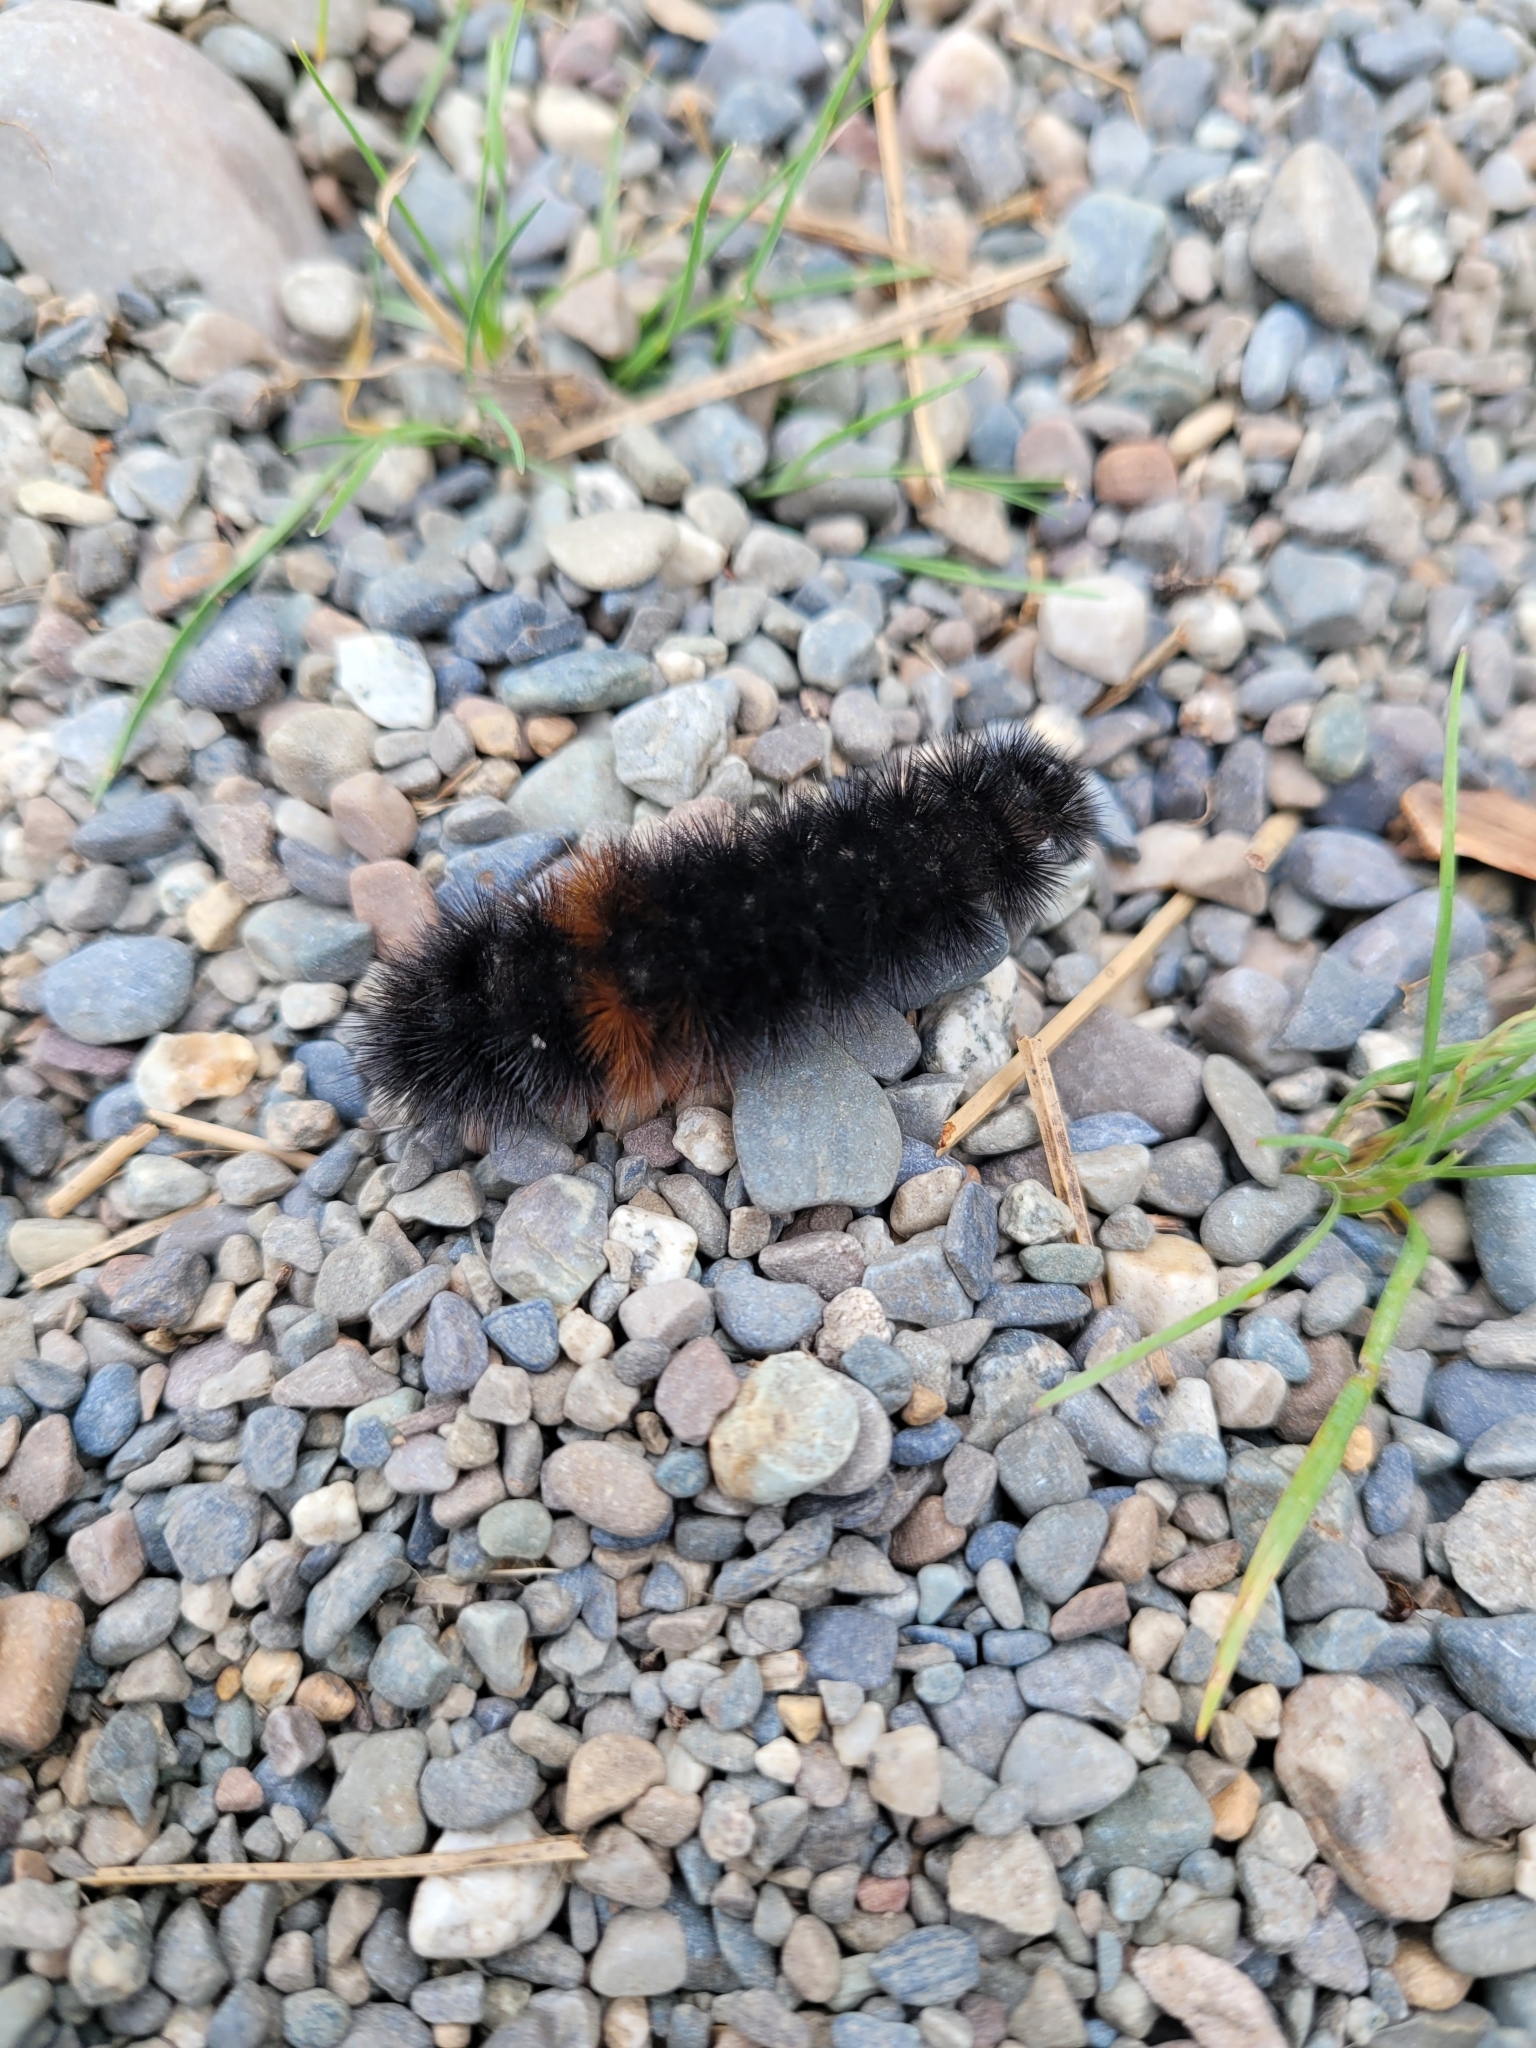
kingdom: Animalia
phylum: Arthropoda
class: Insecta
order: Lepidoptera
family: Erebidae
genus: Pyrrharctia
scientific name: Pyrrharctia isabella
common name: Isabella tiger moth
